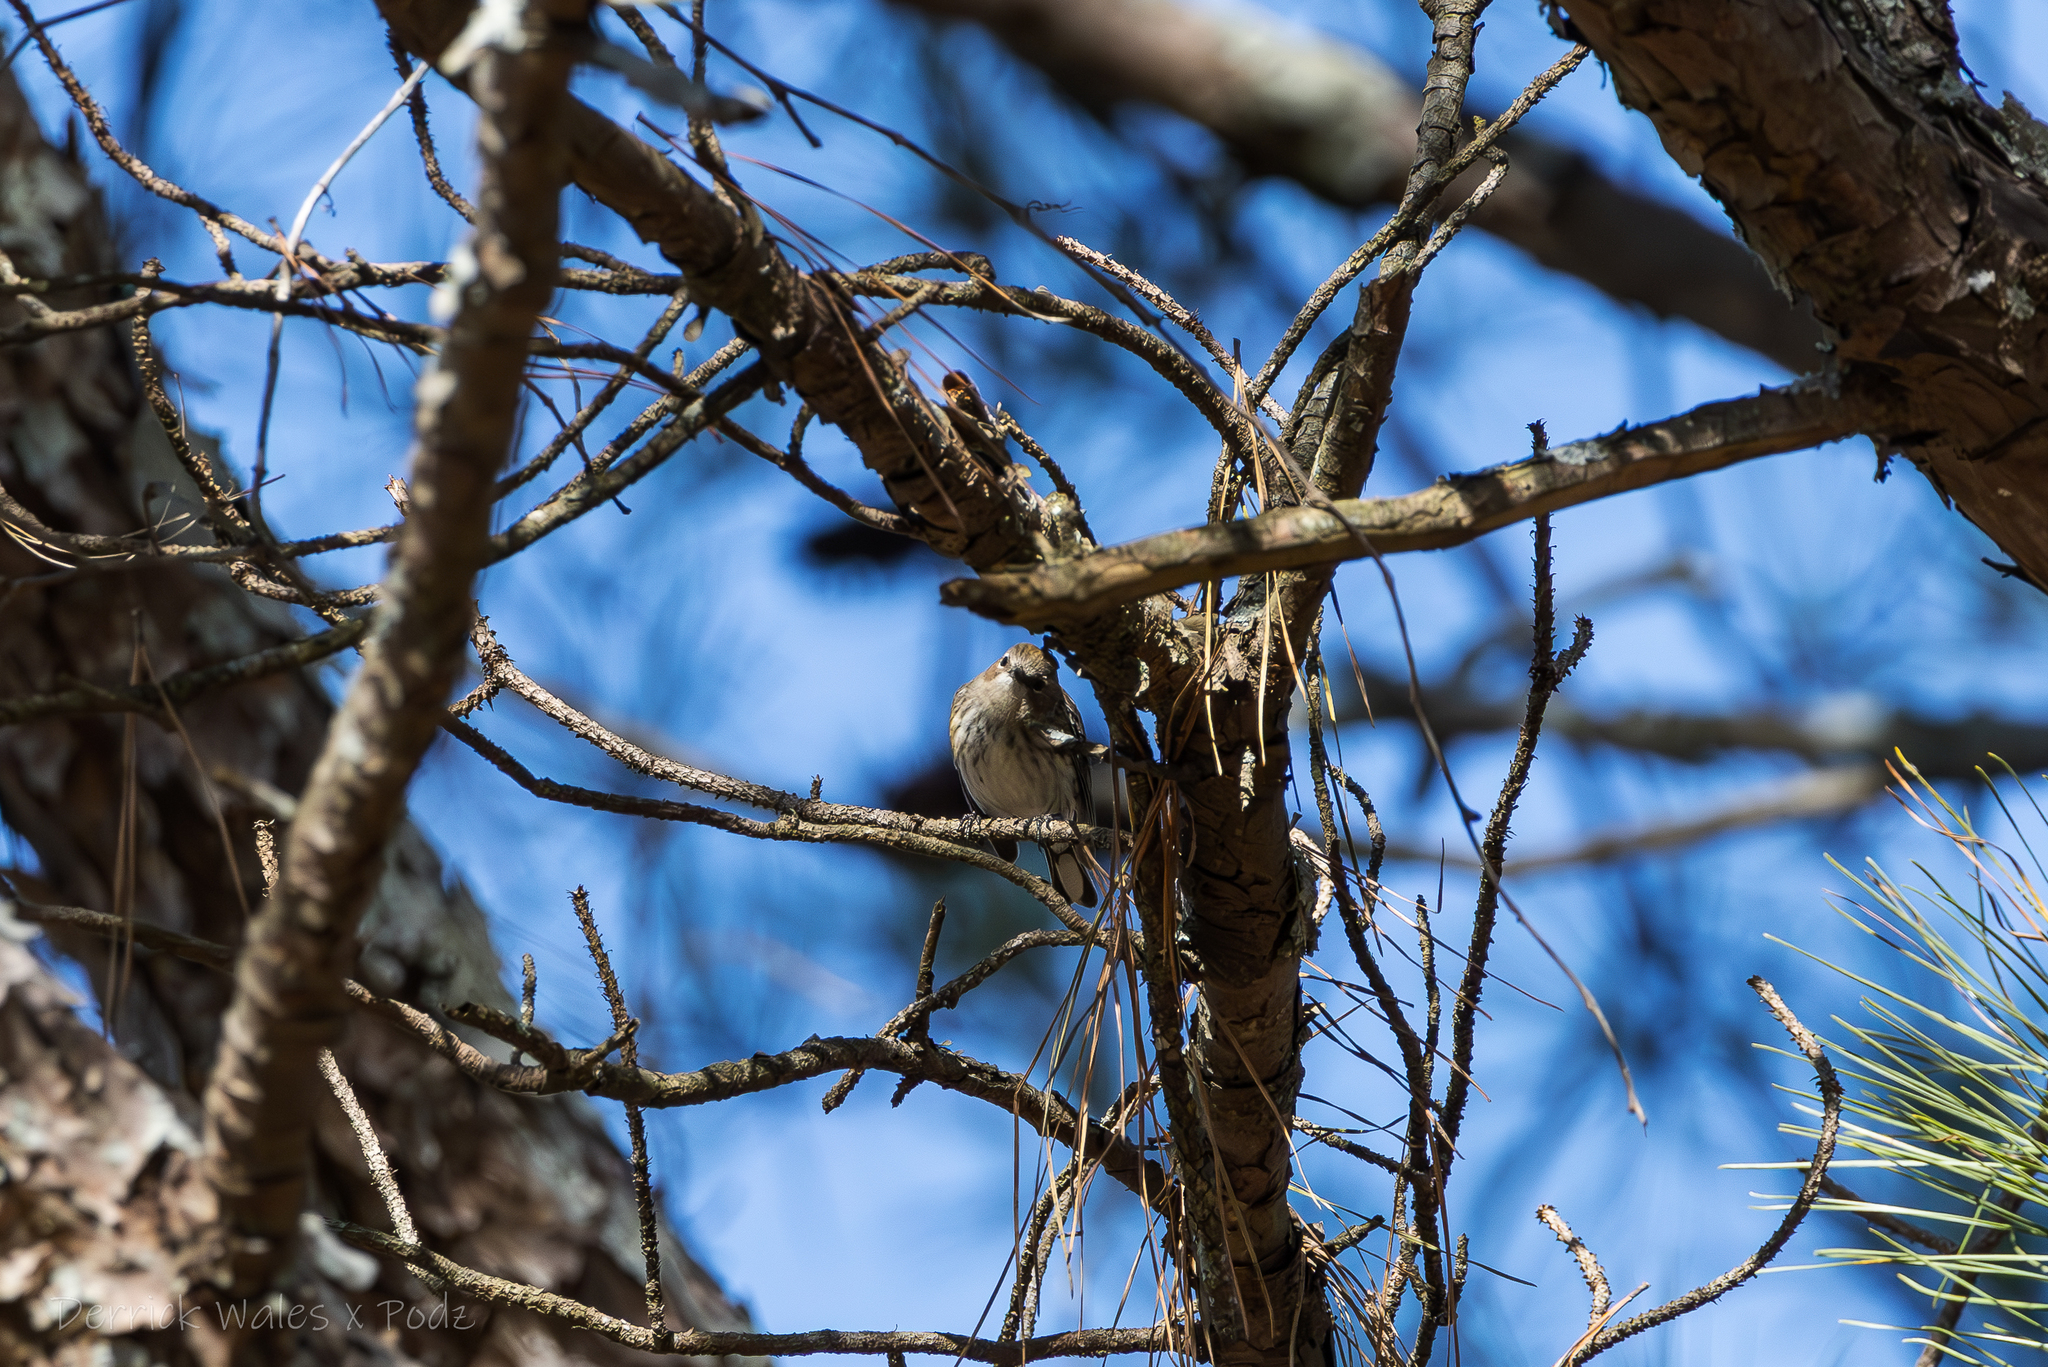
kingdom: Animalia
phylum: Chordata
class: Aves
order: Passeriformes
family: Parulidae
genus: Setophaga
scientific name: Setophaga coronata
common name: Myrtle warbler
